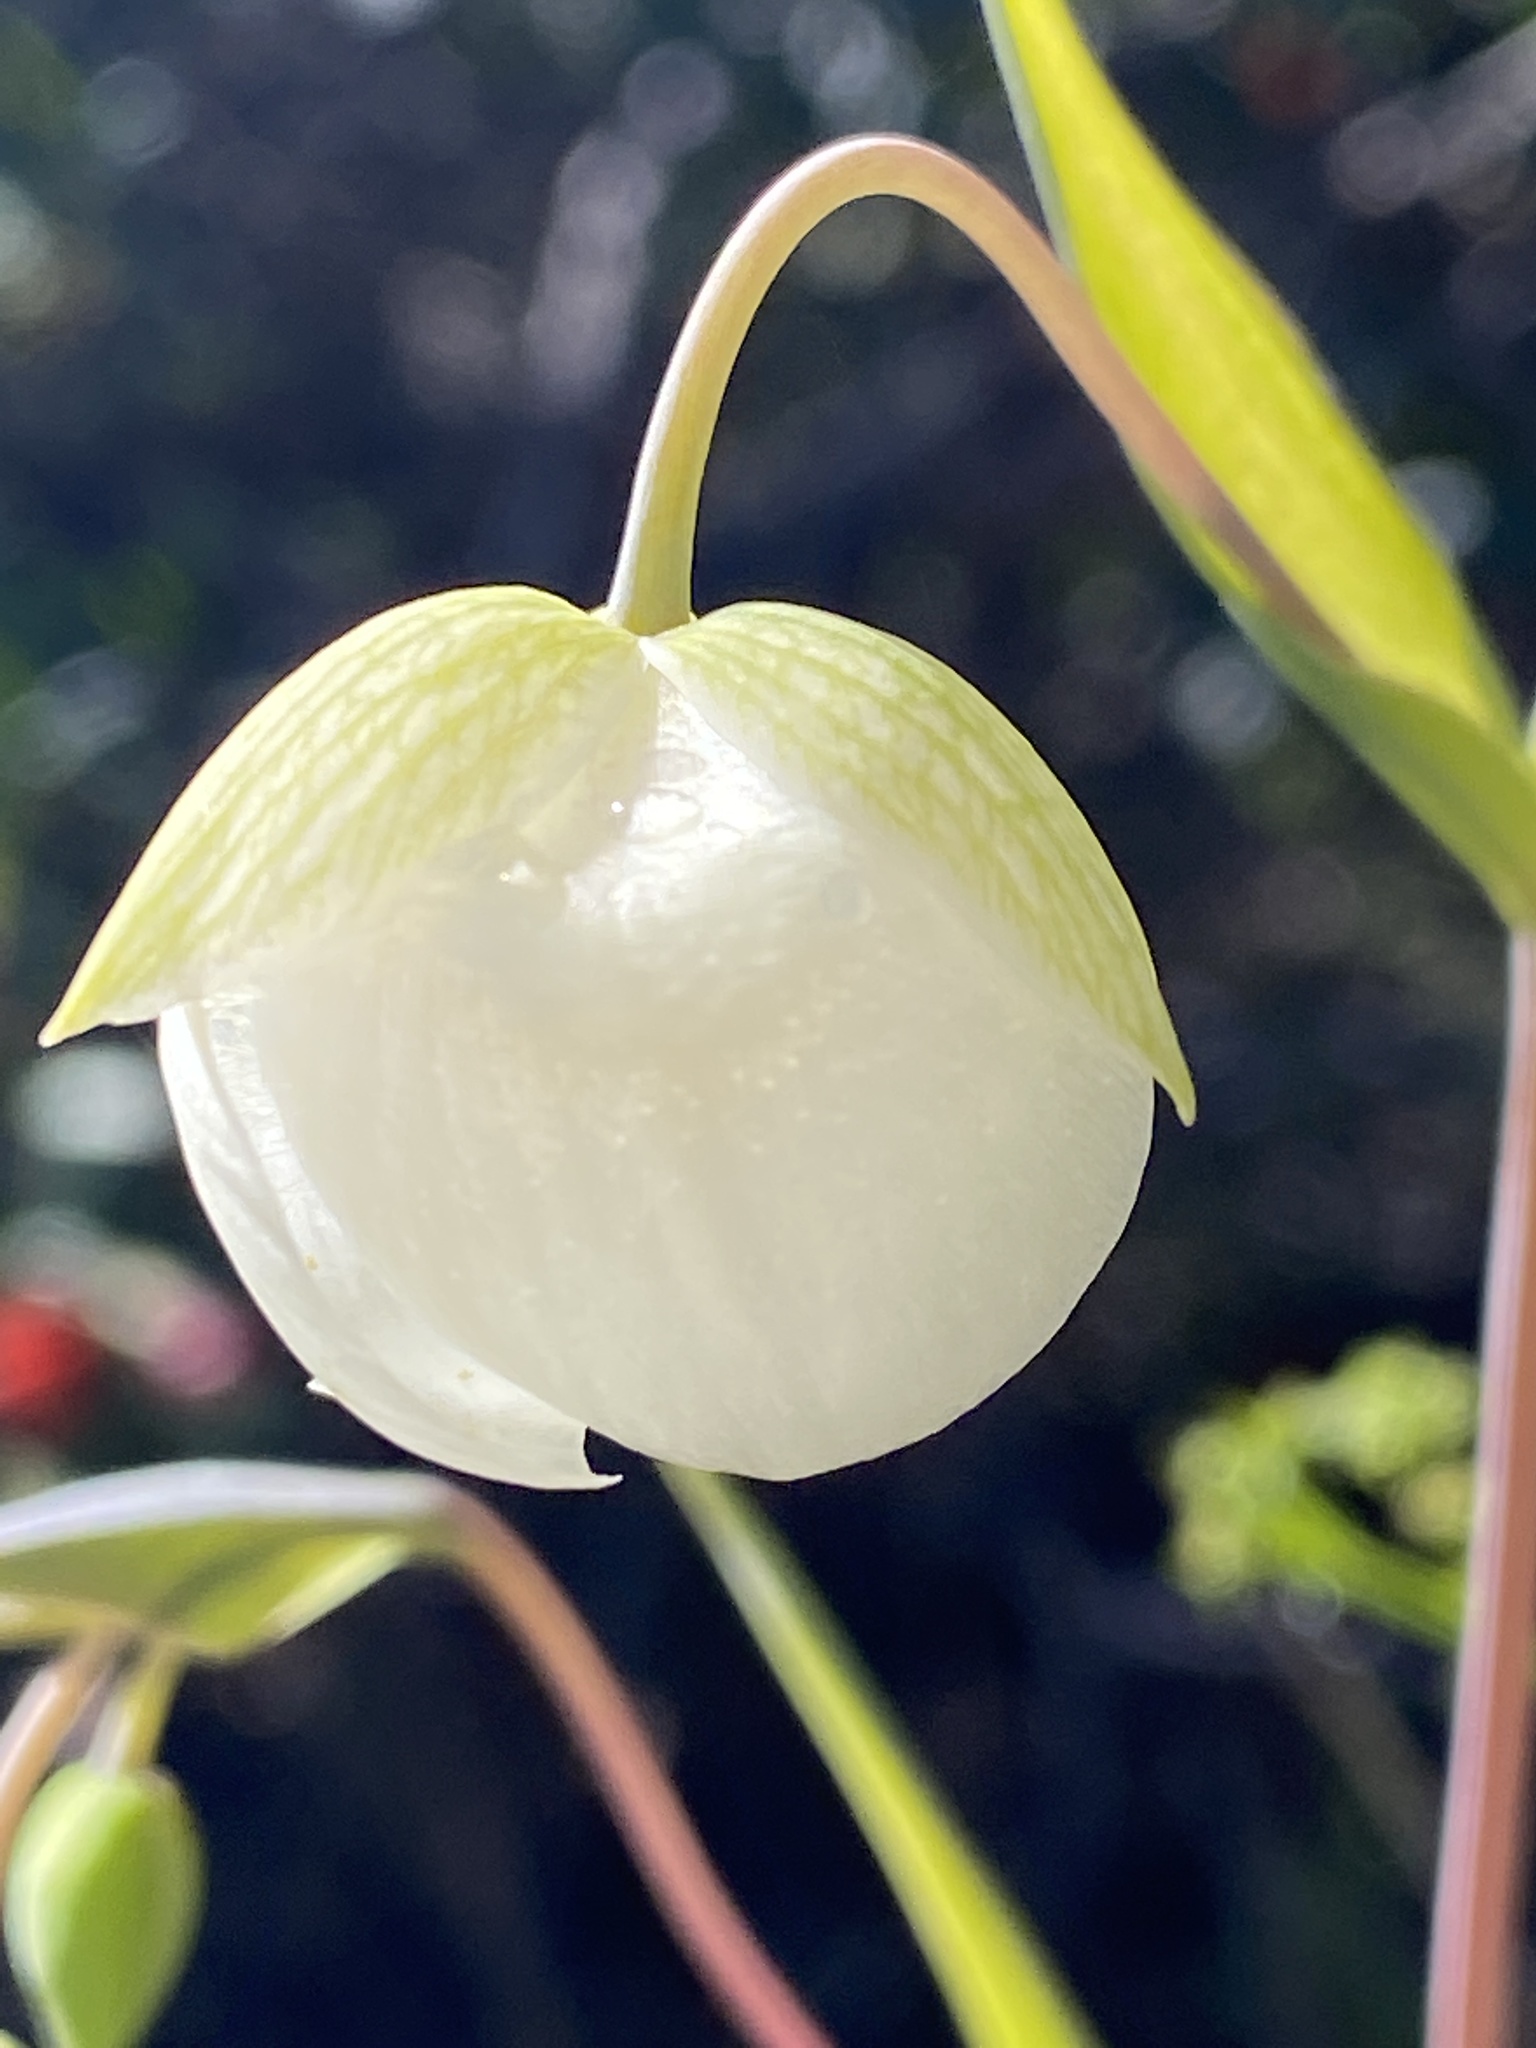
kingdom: Plantae
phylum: Tracheophyta
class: Liliopsida
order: Liliales
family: Liliaceae
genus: Calochortus
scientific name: Calochortus albus
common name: Fairy-lantern
